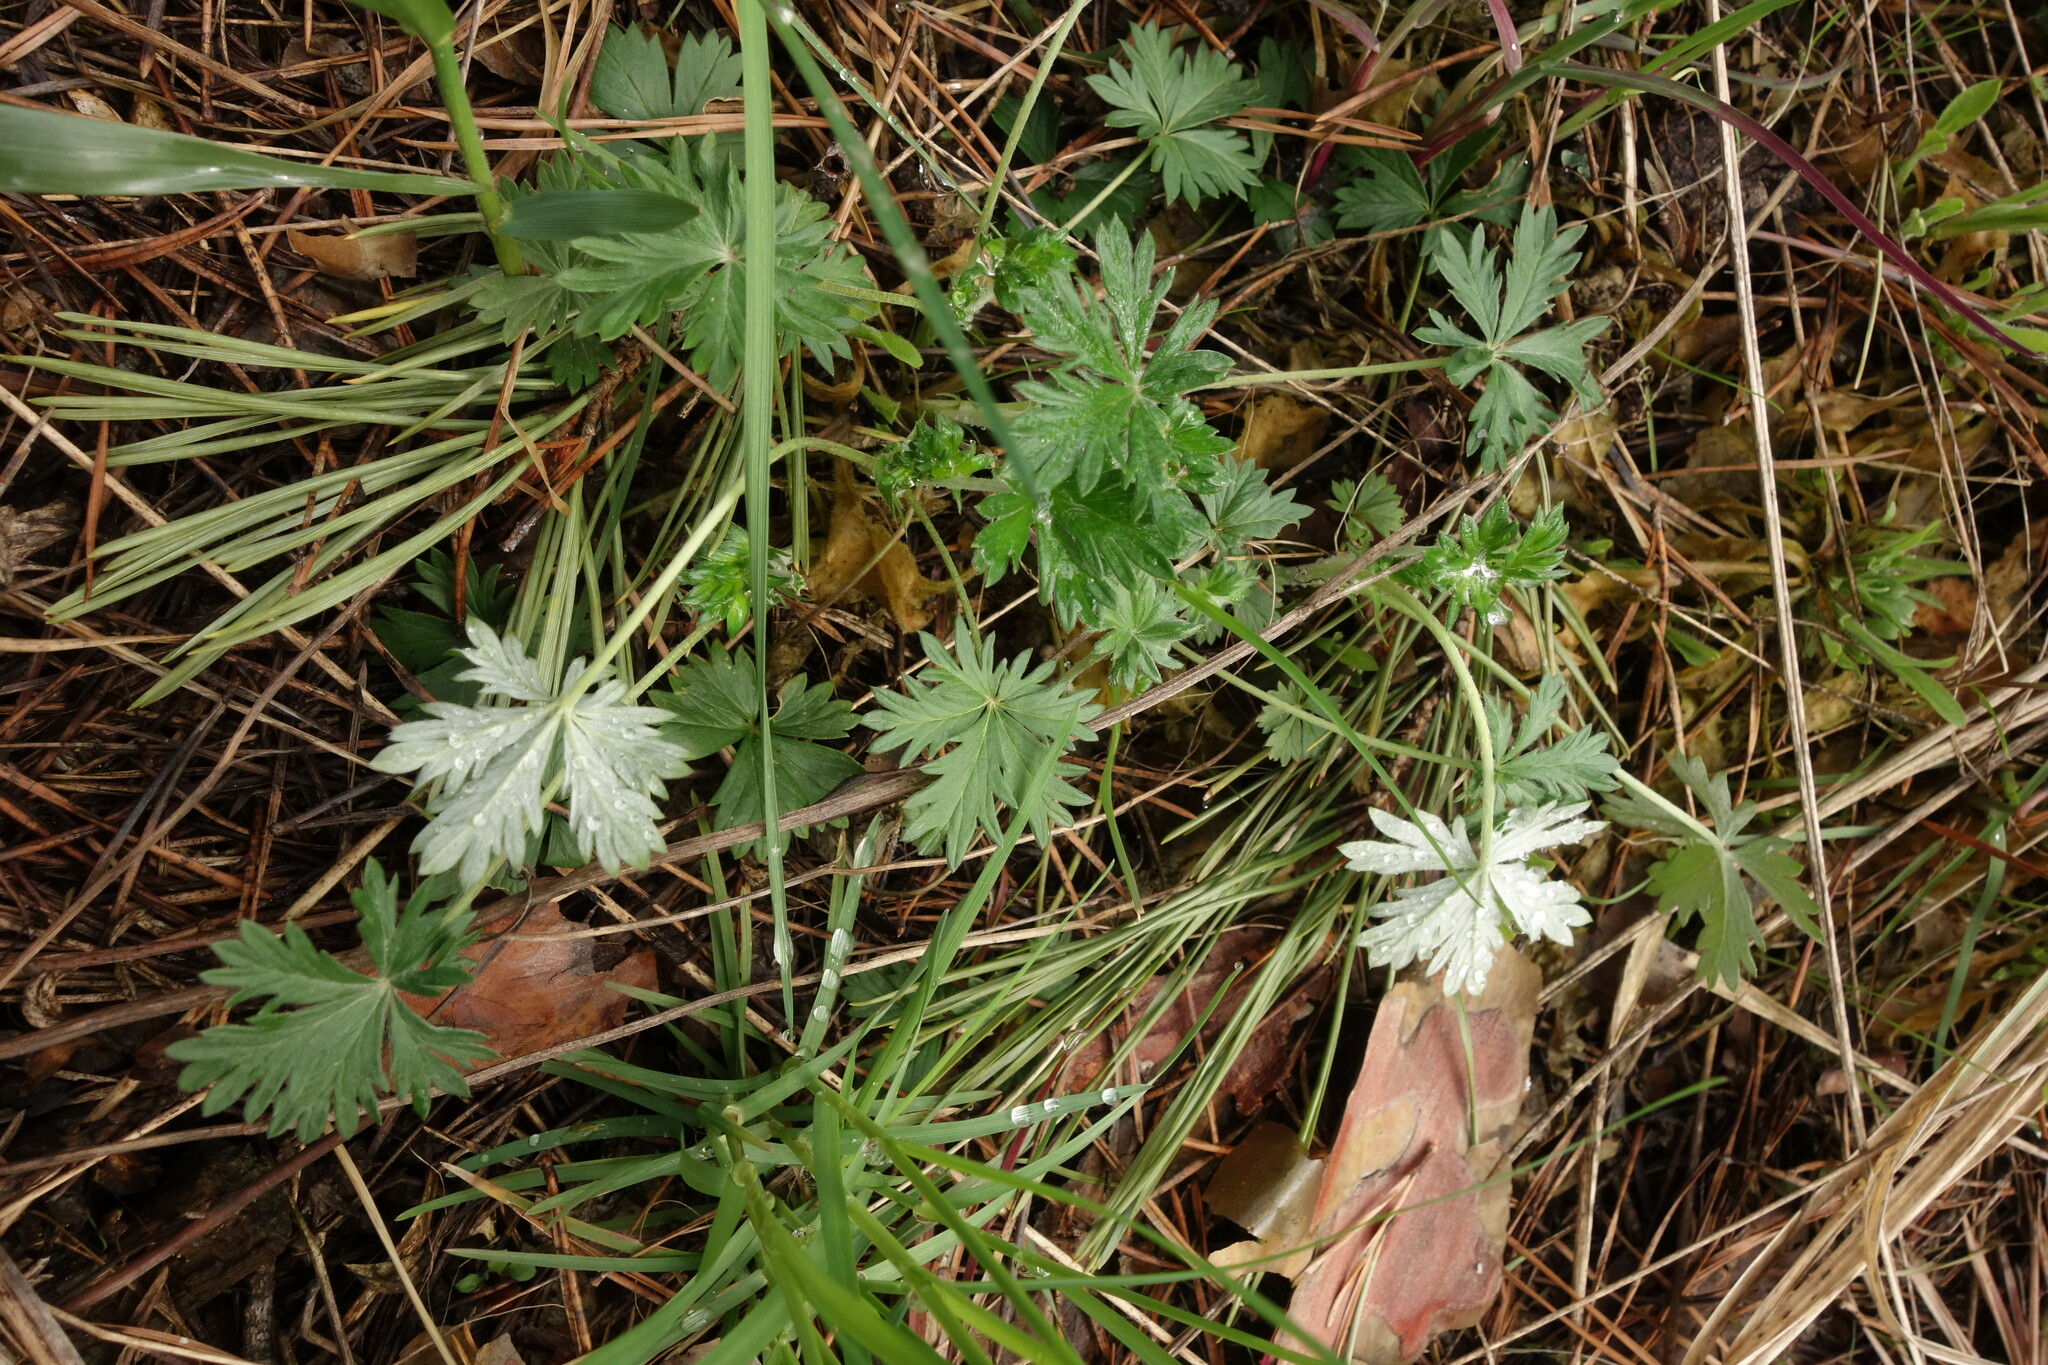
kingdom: Plantae
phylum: Tracheophyta
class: Magnoliopsida
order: Rosales
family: Rosaceae
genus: Potentilla
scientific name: Potentilla argentea
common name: Hoary cinquefoil
